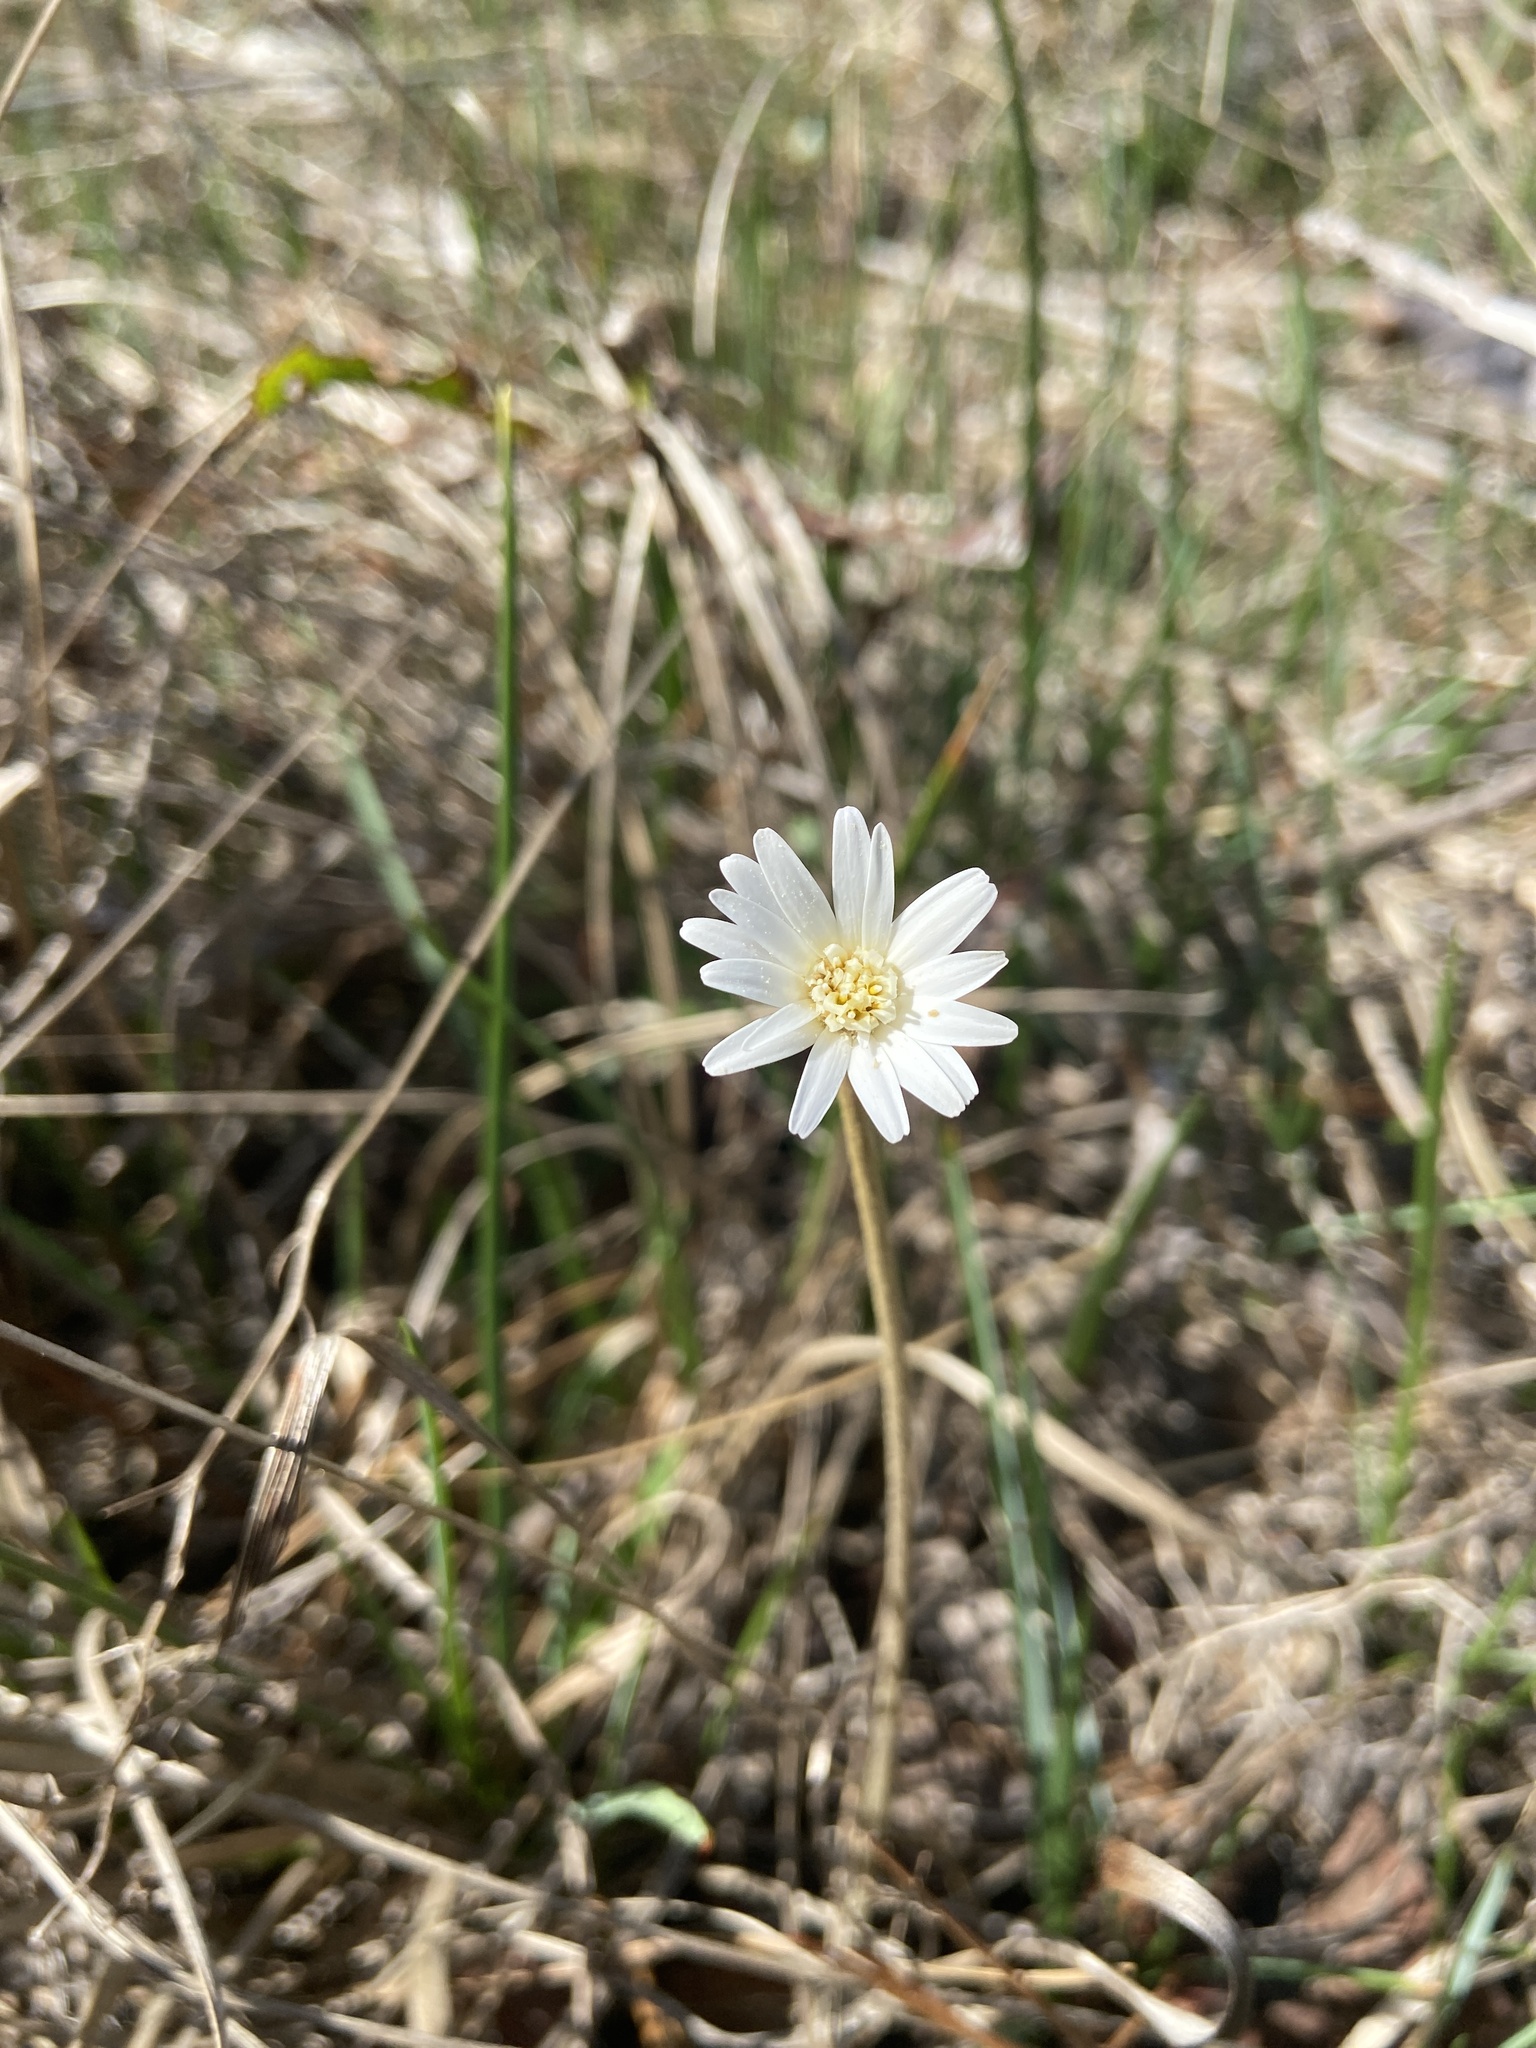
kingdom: Plantae
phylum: Tracheophyta
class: Magnoliopsida
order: Asterales
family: Asteraceae
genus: Chaptalia
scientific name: Chaptalia tomentosa
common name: Woolly sunbonnet
